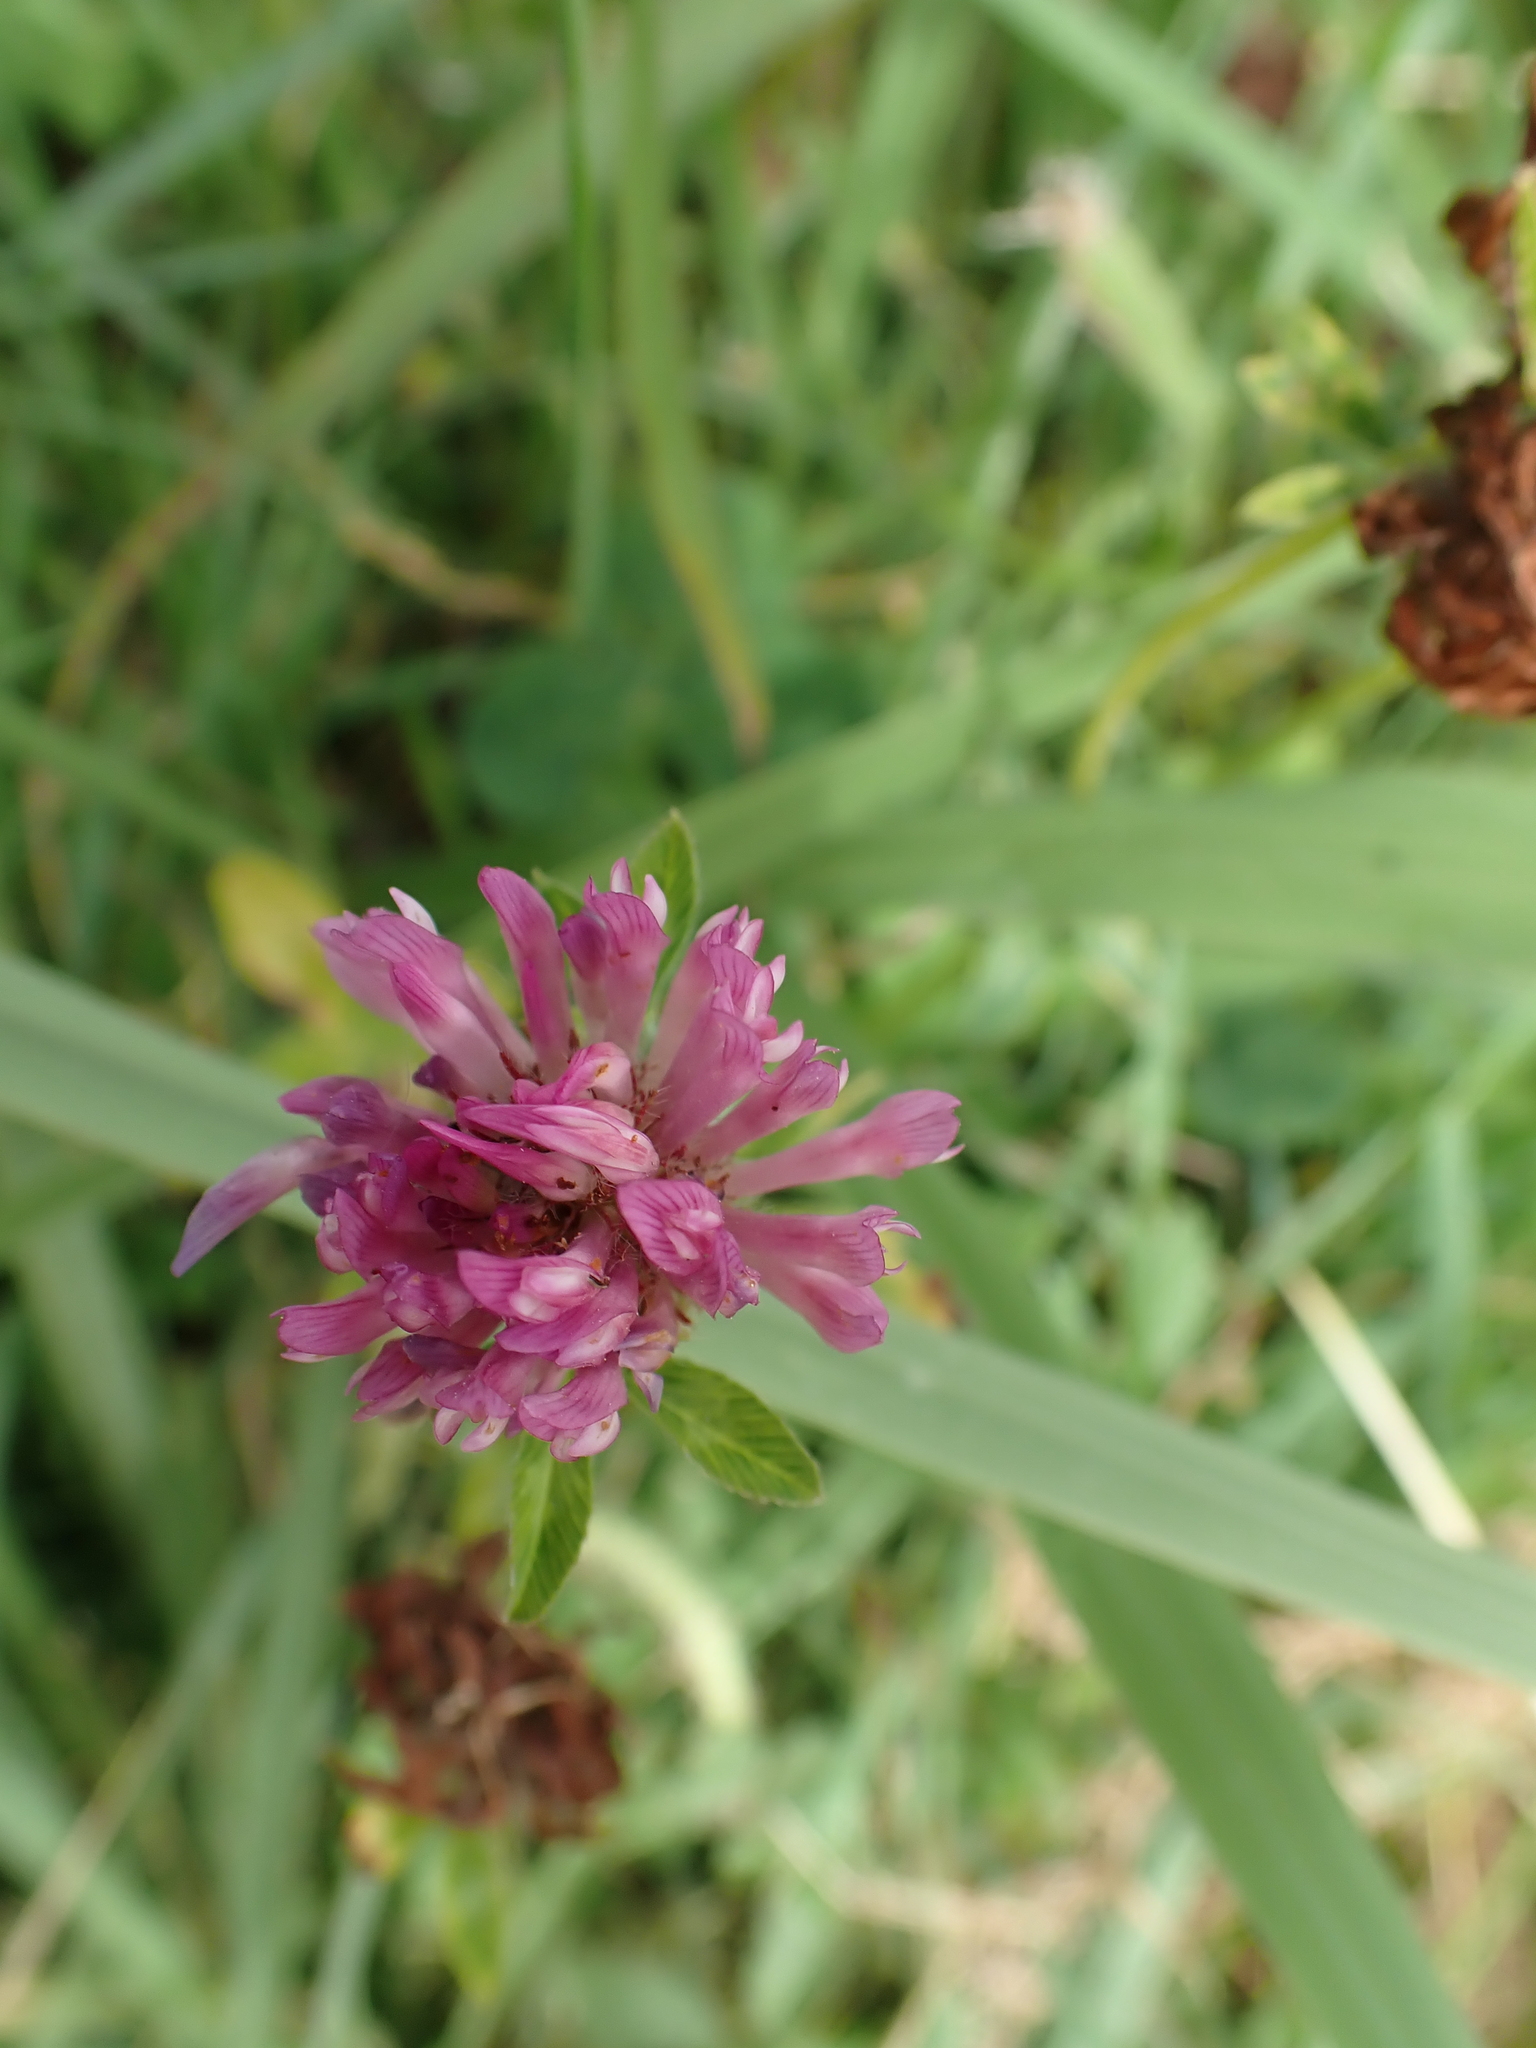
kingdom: Plantae
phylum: Tracheophyta
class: Magnoliopsida
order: Fabales
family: Fabaceae
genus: Trifolium
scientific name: Trifolium pratense
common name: Red clover
